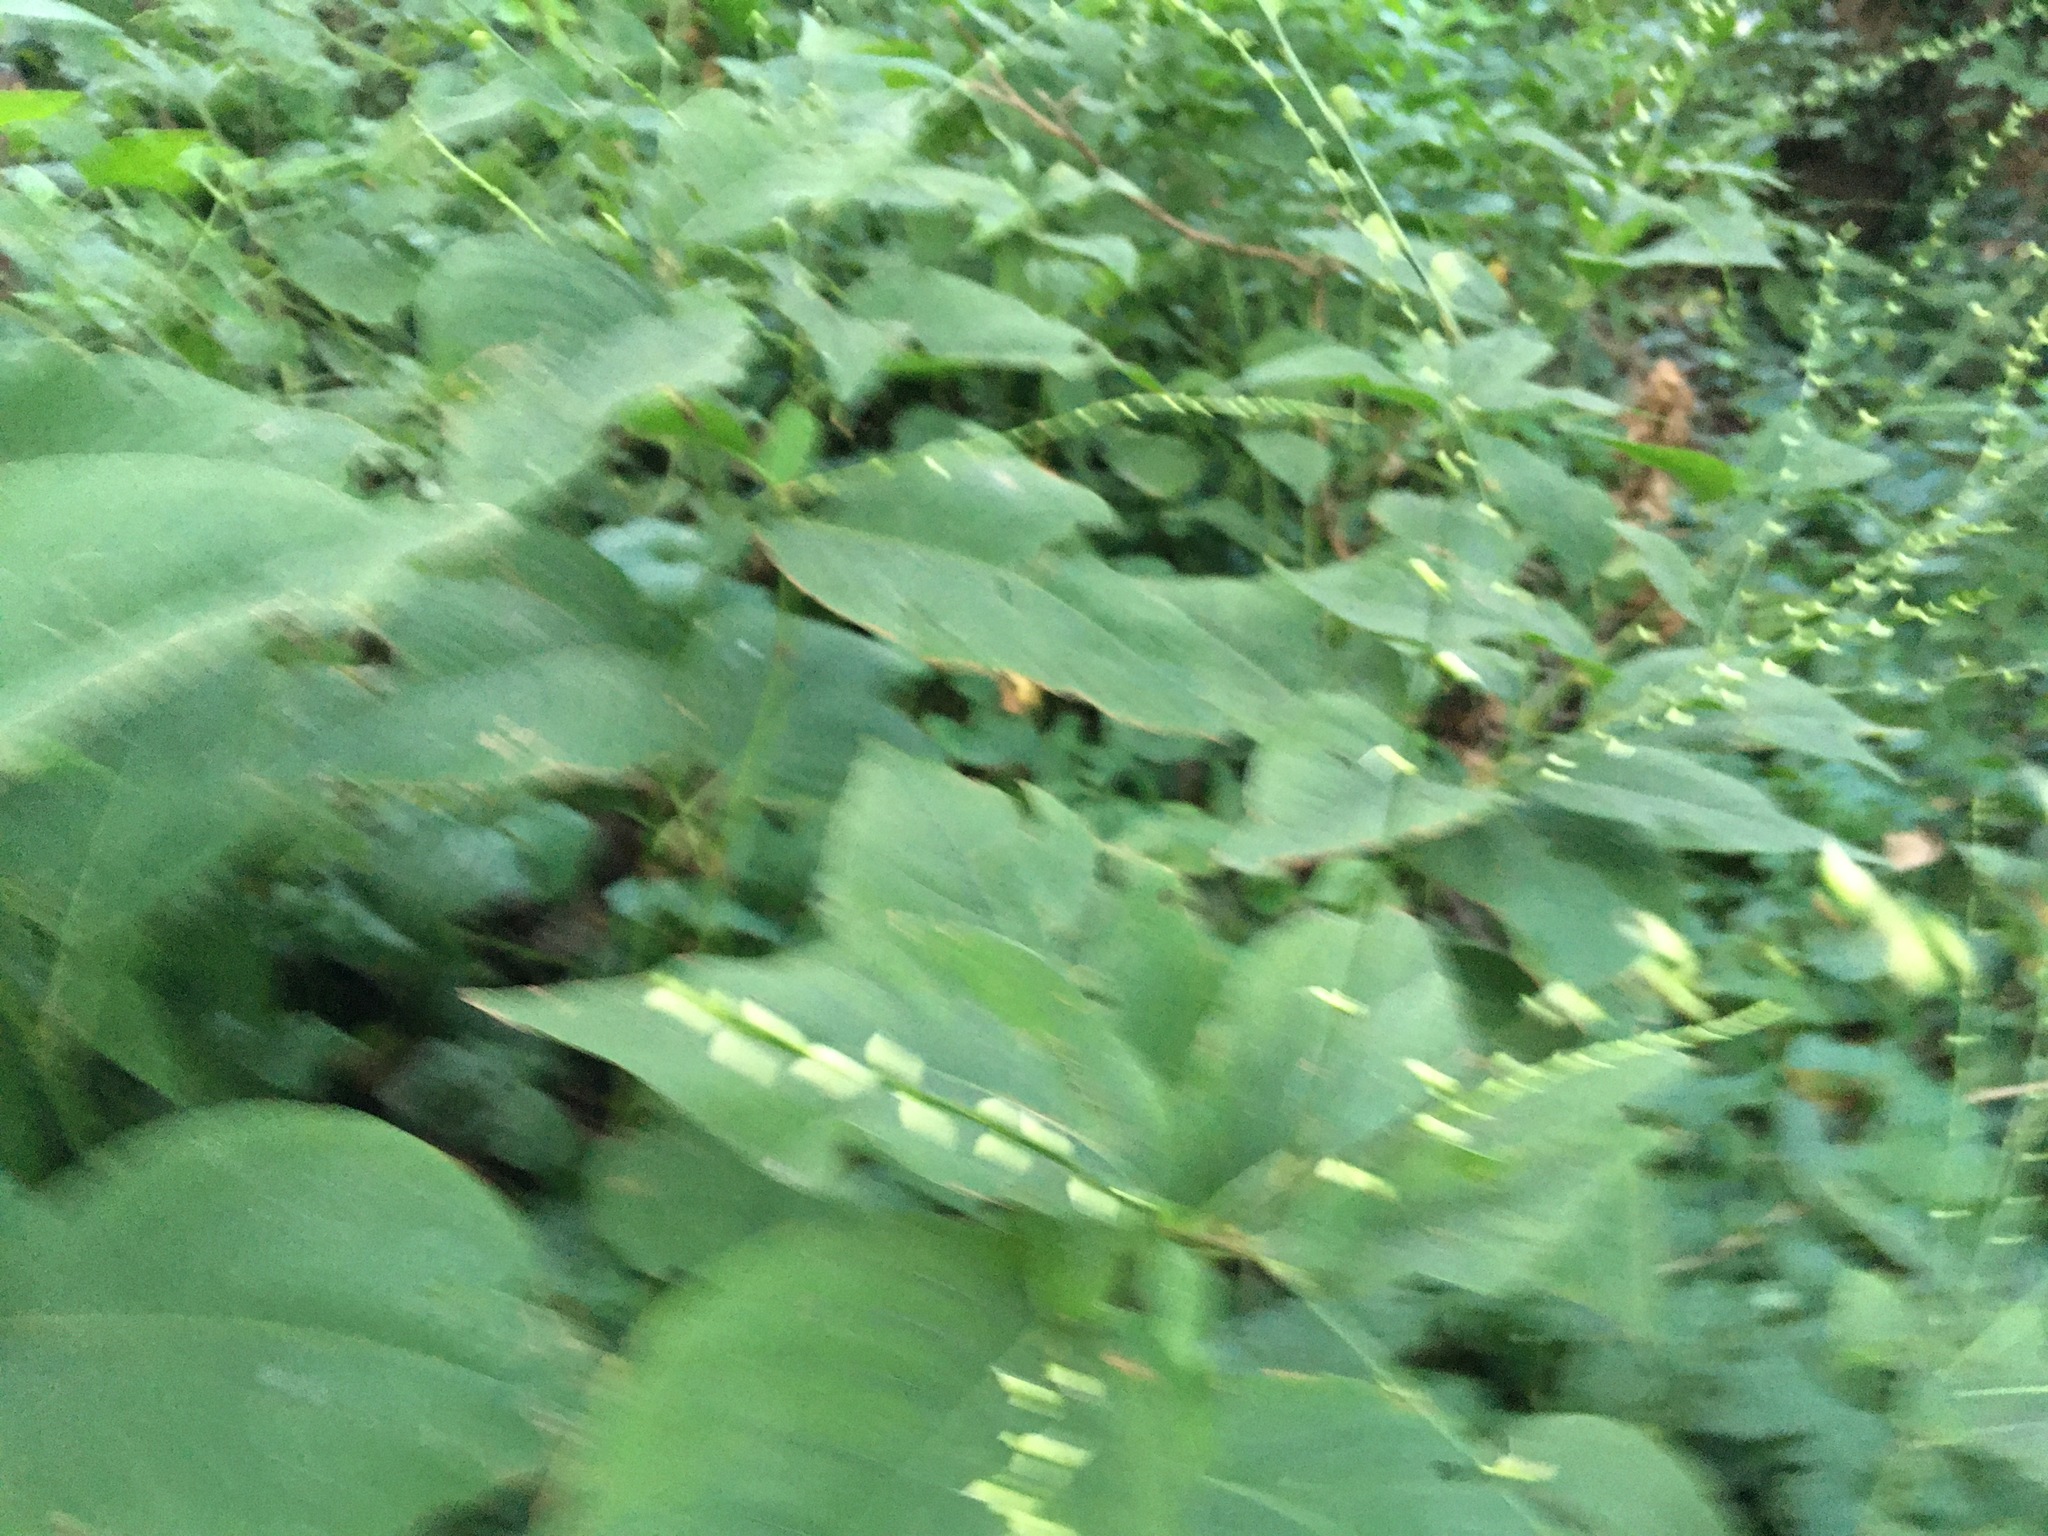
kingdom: Plantae
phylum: Tracheophyta
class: Magnoliopsida
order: Caryophyllales
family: Polygonaceae
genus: Persicaria
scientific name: Persicaria virginiana
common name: Jumpseed
